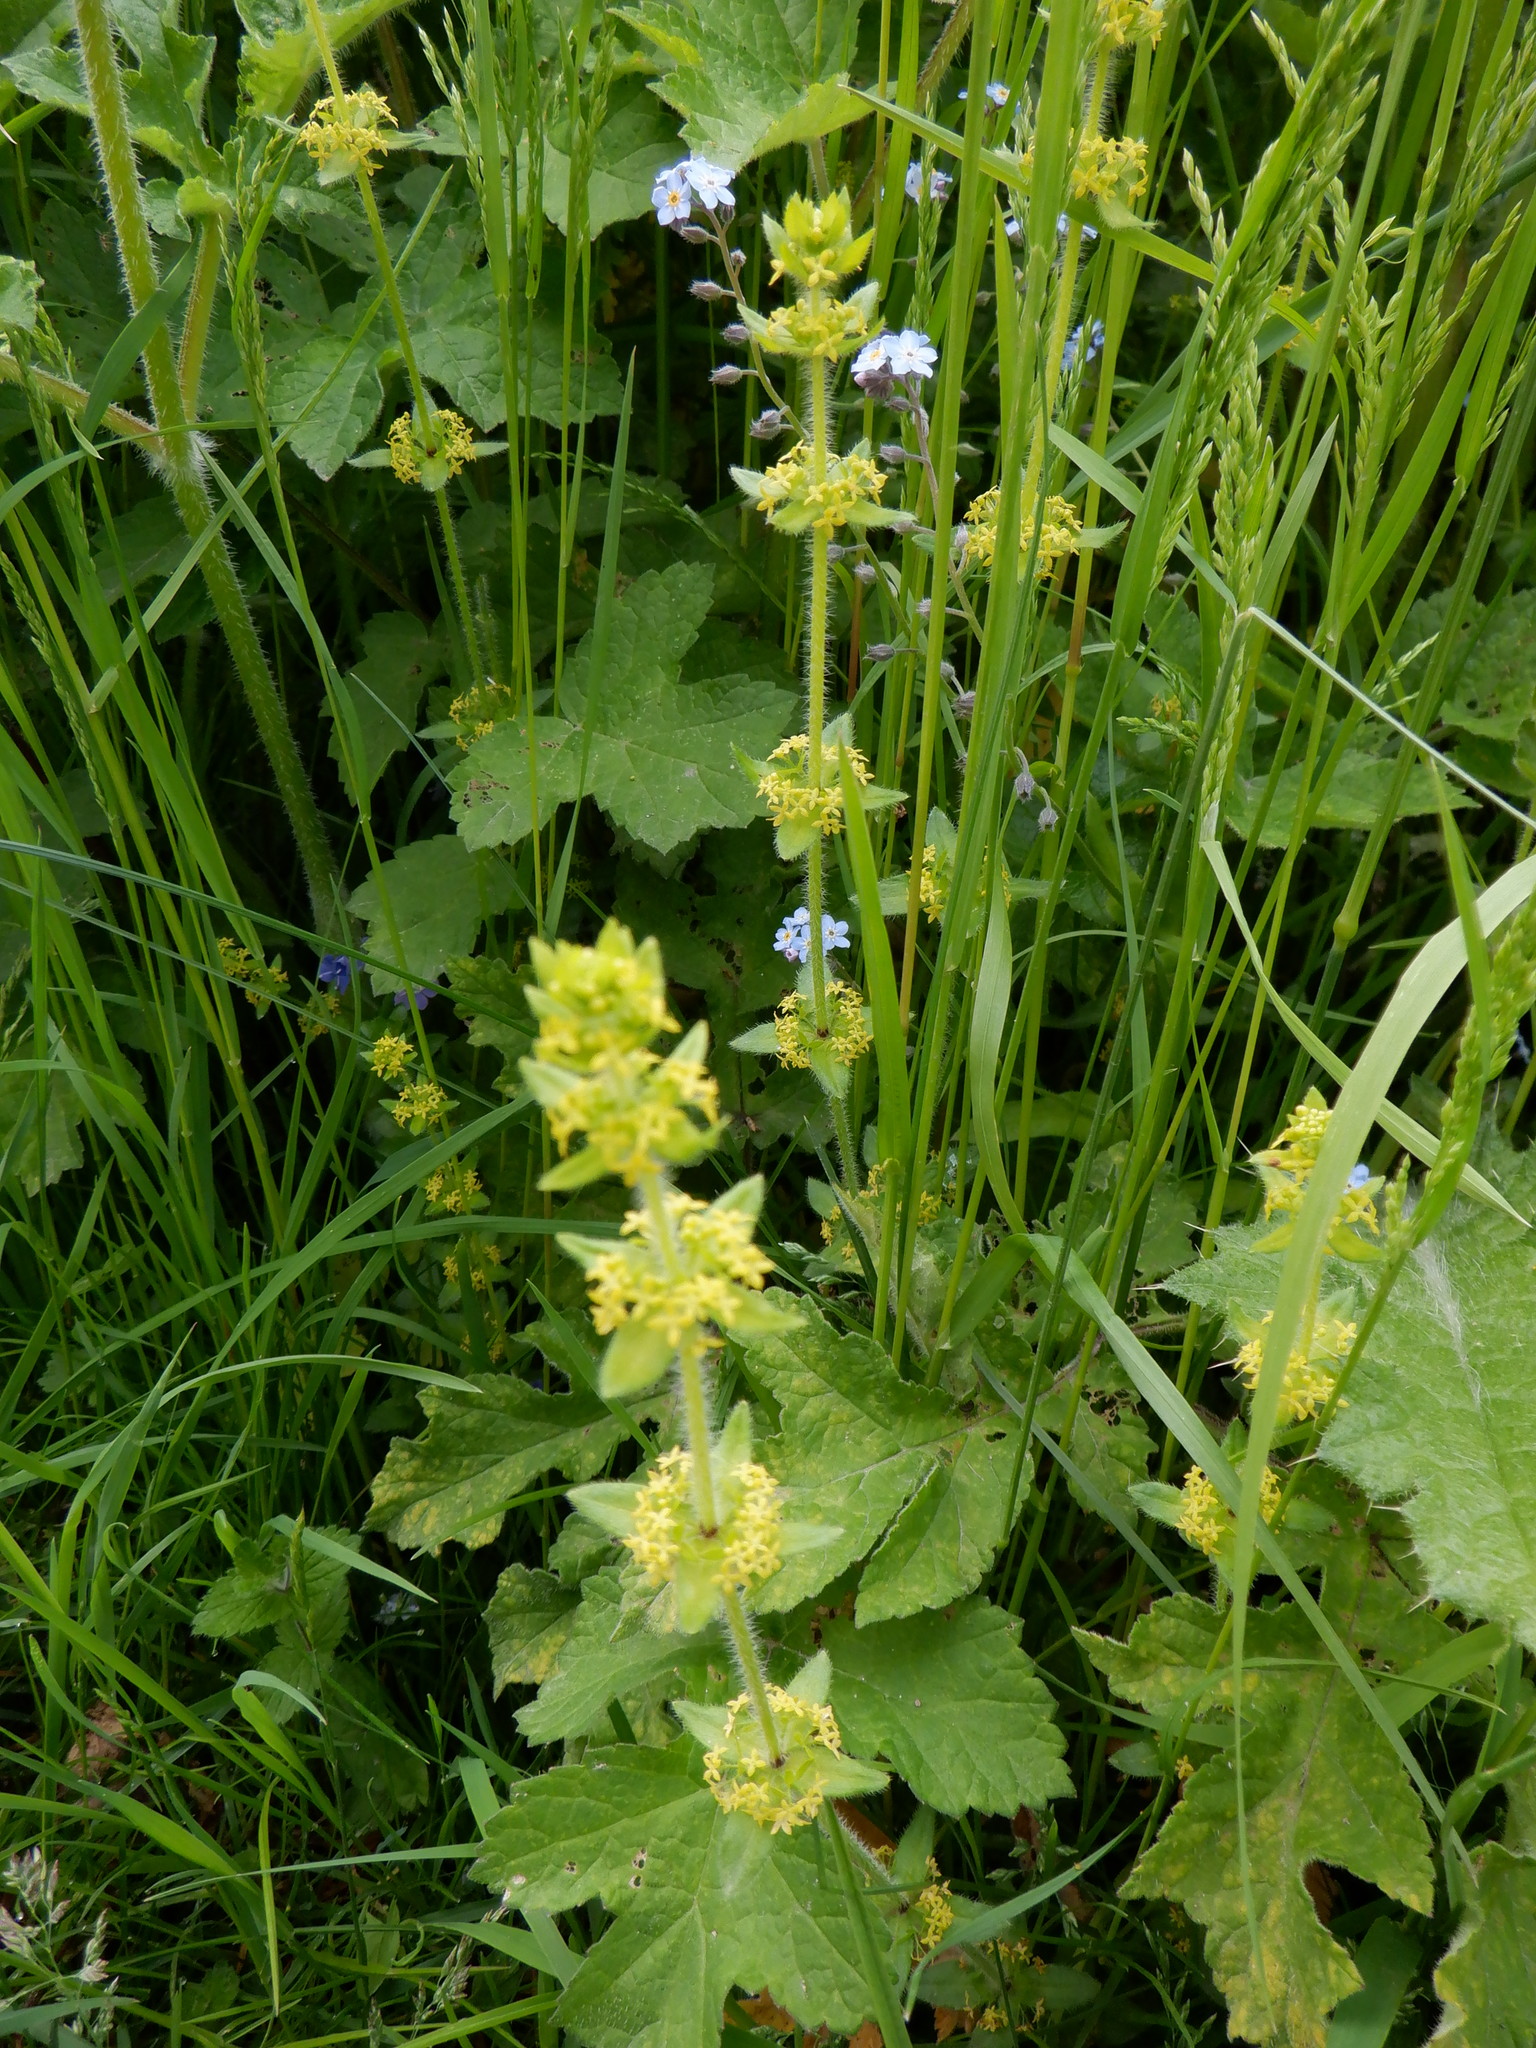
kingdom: Plantae
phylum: Tracheophyta
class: Magnoliopsida
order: Gentianales
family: Rubiaceae
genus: Cruciata
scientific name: Cruciata laevipes
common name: Crosswort
